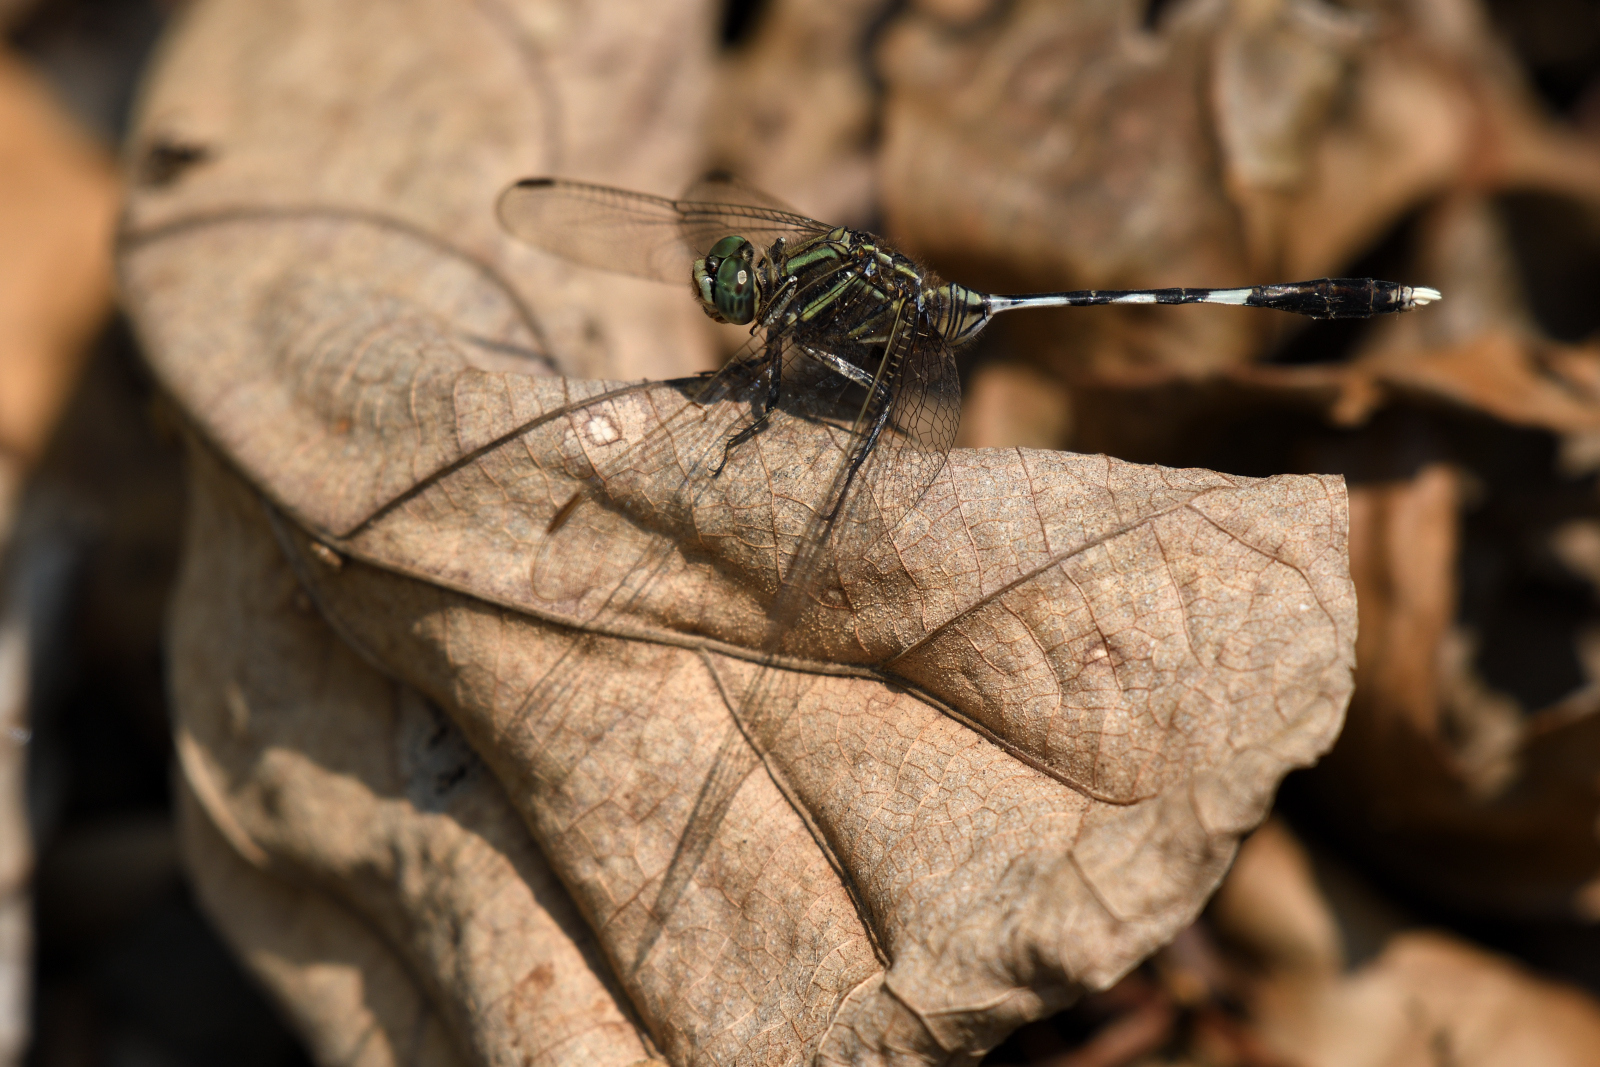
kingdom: Animalia
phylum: Arthropoda
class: Insecta
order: Odonata
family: Libellulidae
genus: Orthetrum
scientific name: Orthetrum sabina
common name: Slender skimmer
